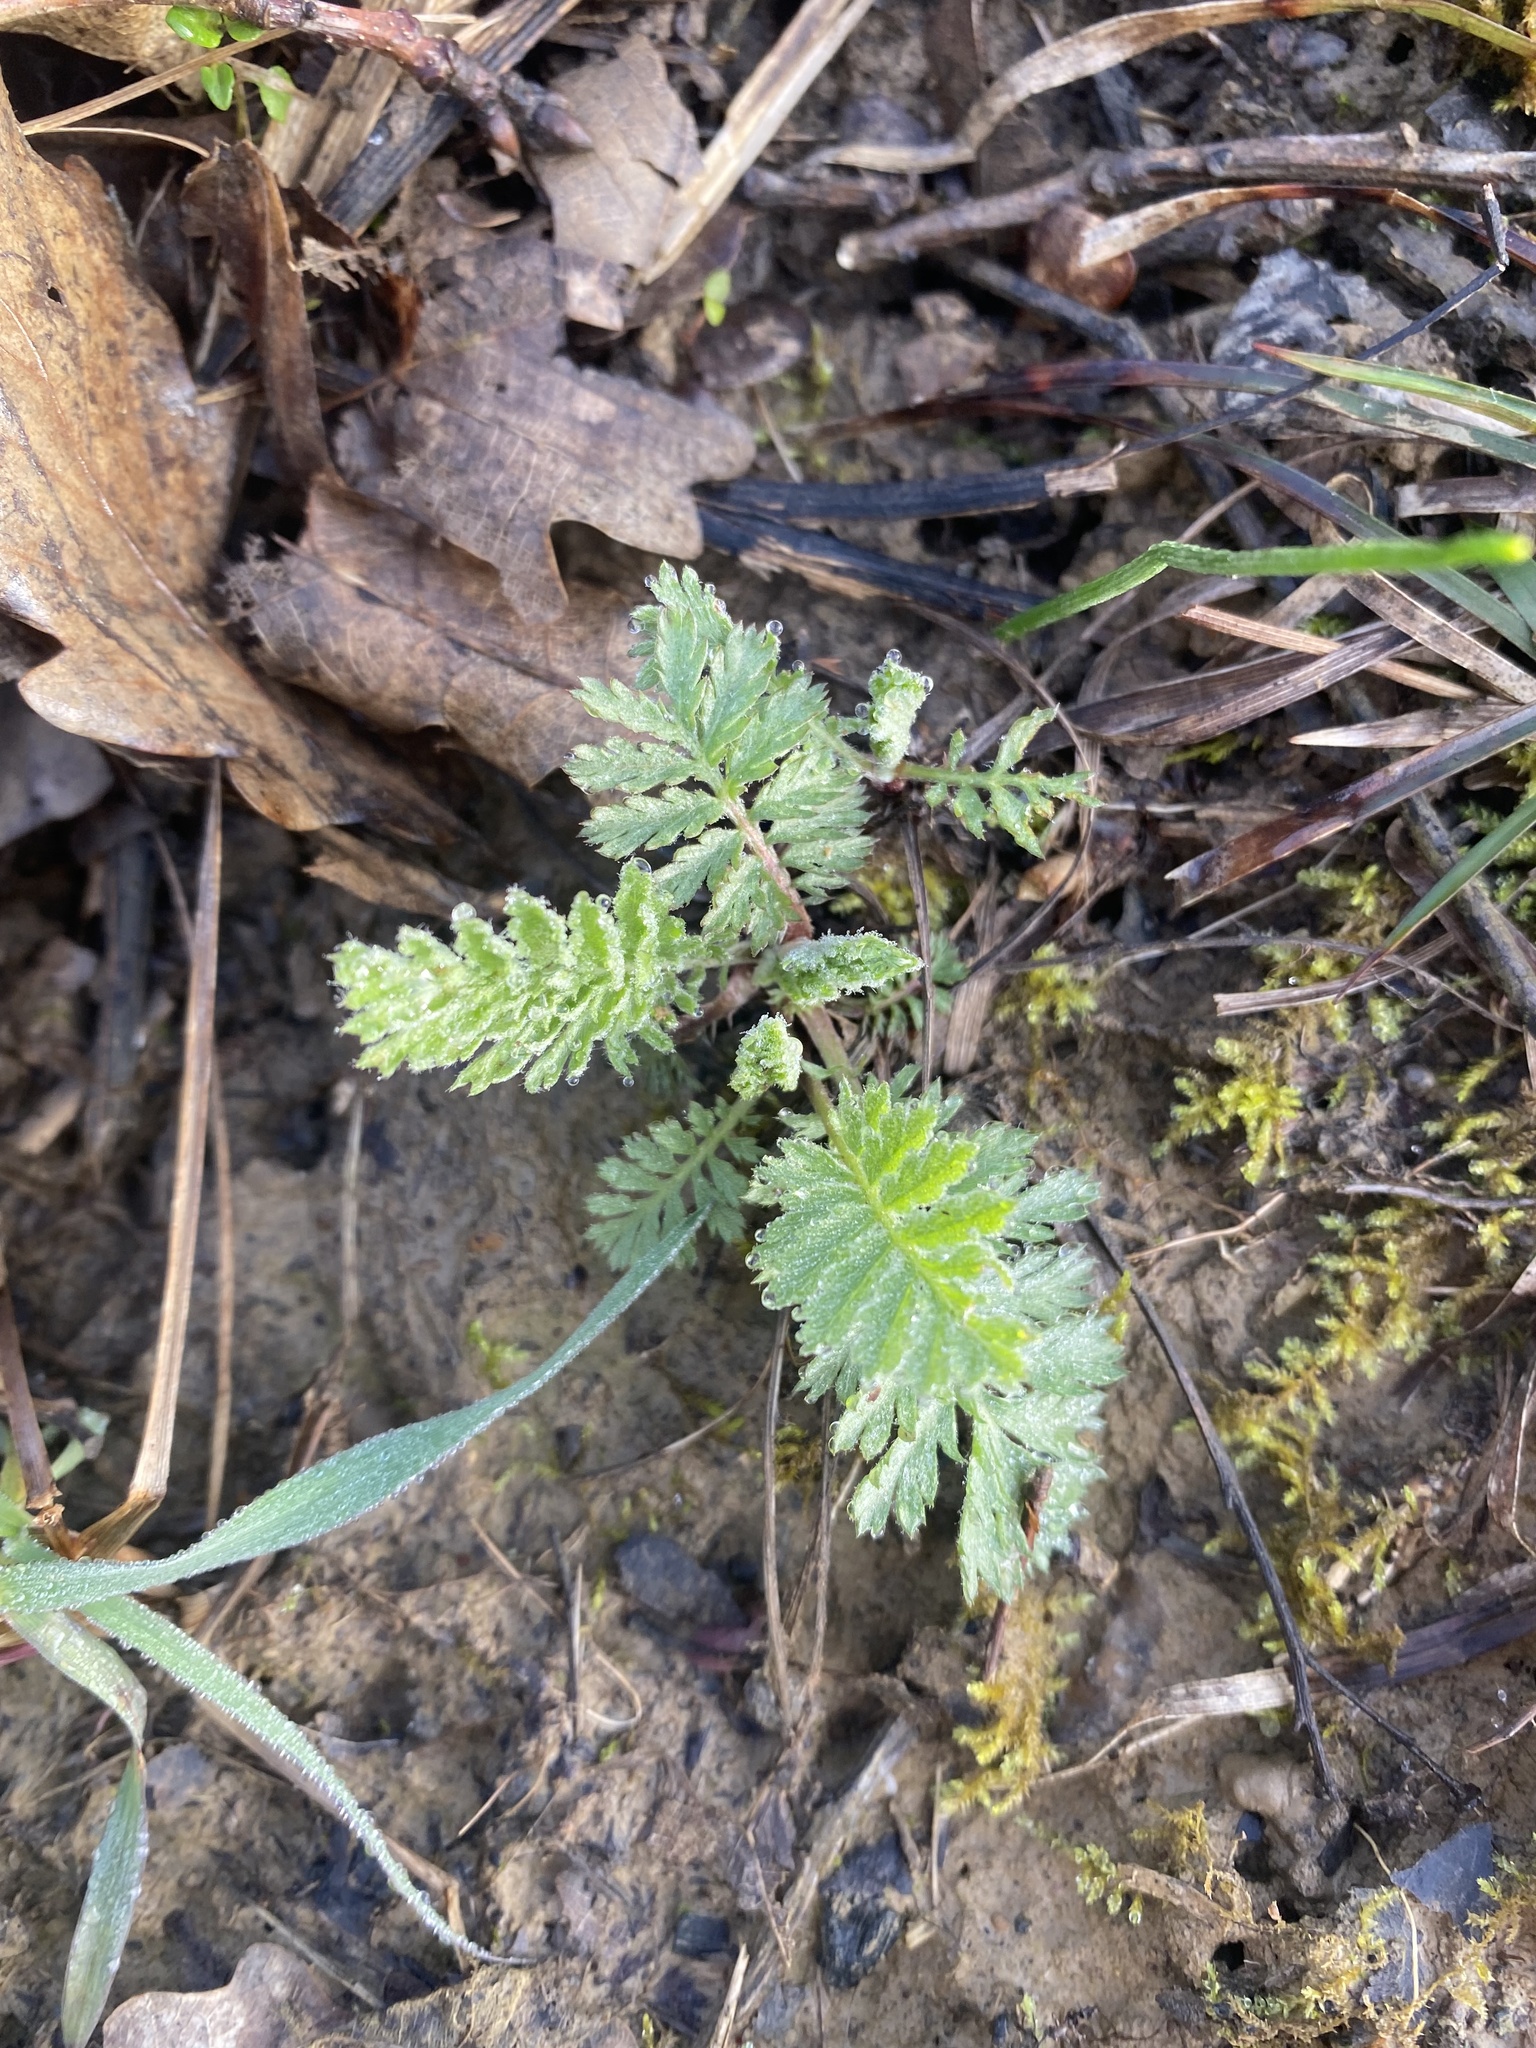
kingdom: Plantae
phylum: Tracheophyta
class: Magnoliopsida
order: Asterales
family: Asteraceae
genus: Tanacetum
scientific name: Tanacetum poteriifolium
